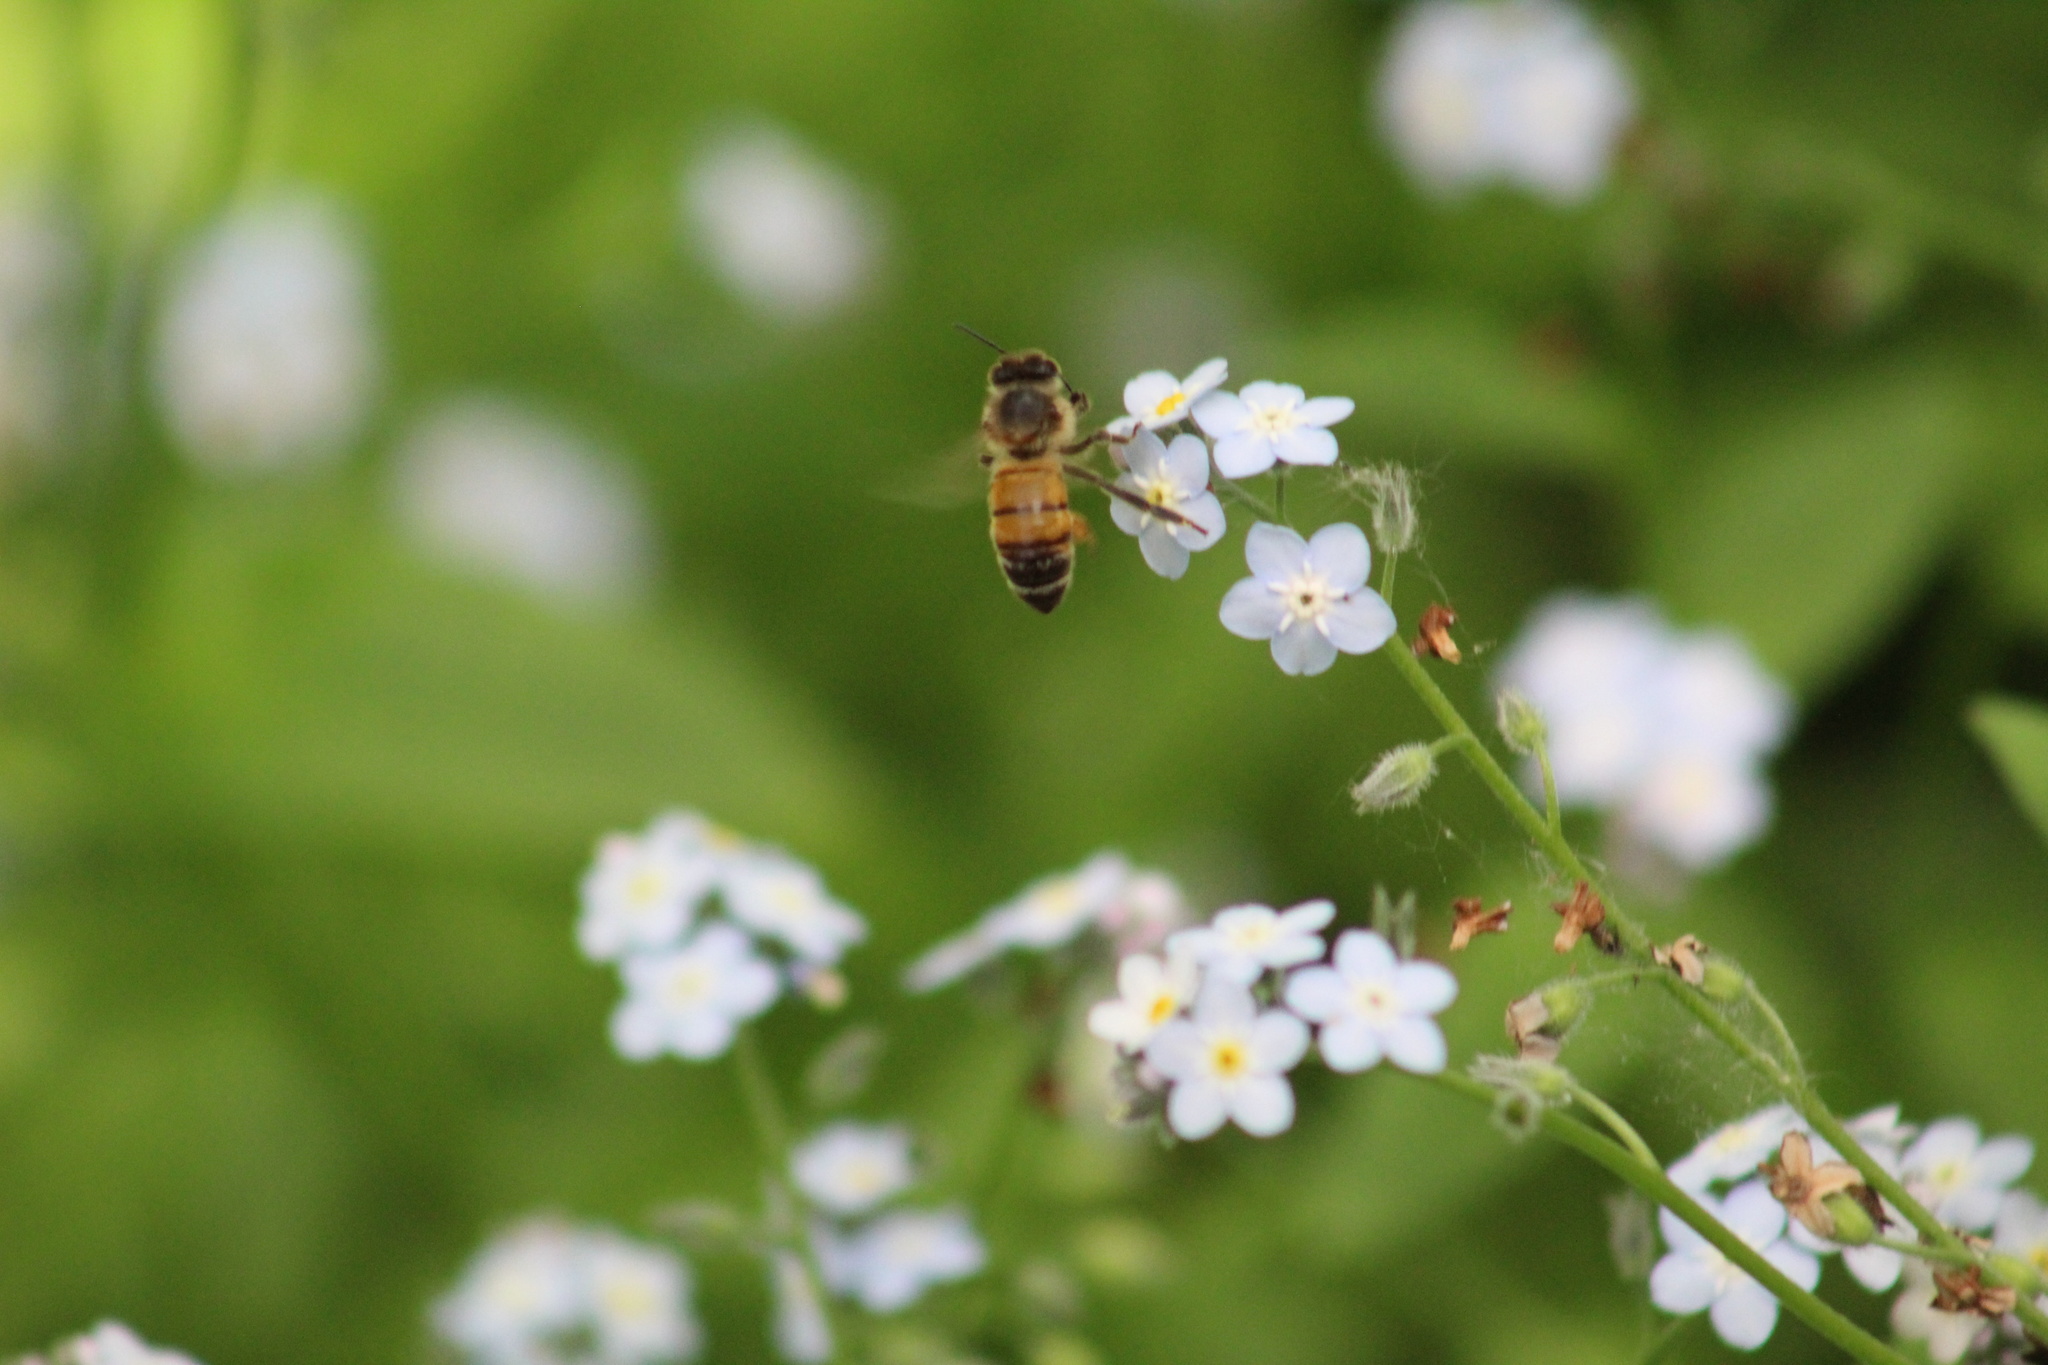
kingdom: Animalia
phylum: Arthropoda
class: Insecta
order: Hymenoptera
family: Apidae
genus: Apis
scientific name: Apis mellifera
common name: Honey bee
